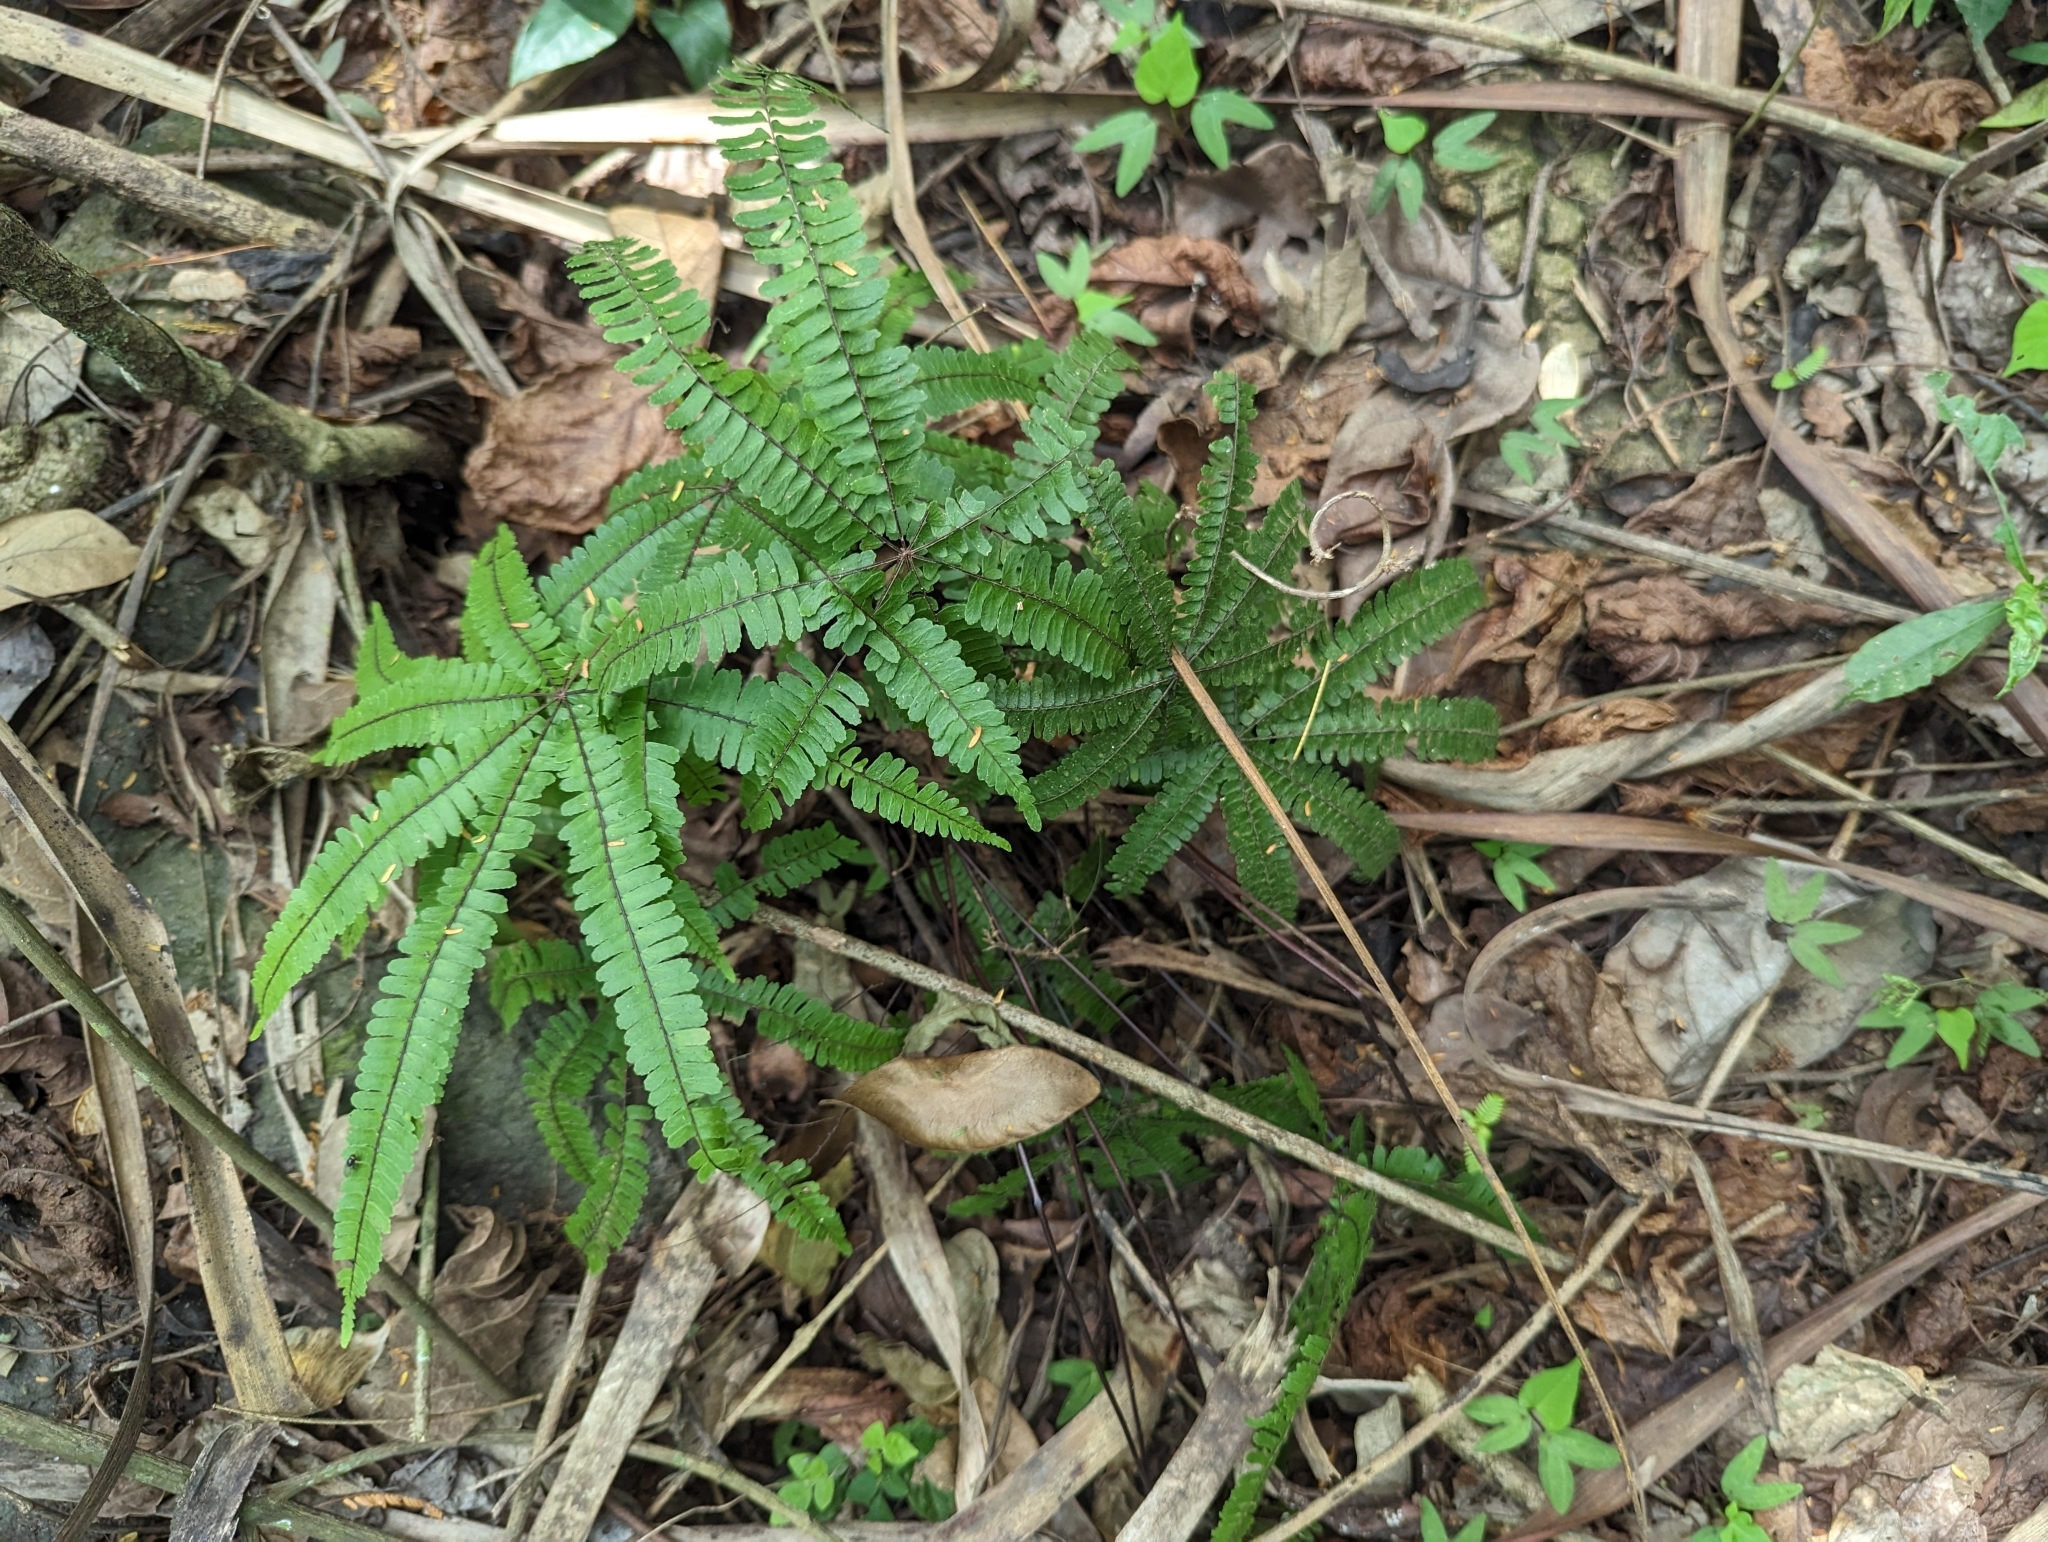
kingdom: Plantae
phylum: Tracheophyta
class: Polypodiopsida
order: Polypodiales
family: Pteridaceae
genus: Adiantopsis
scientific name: Adiantopsis radiata
